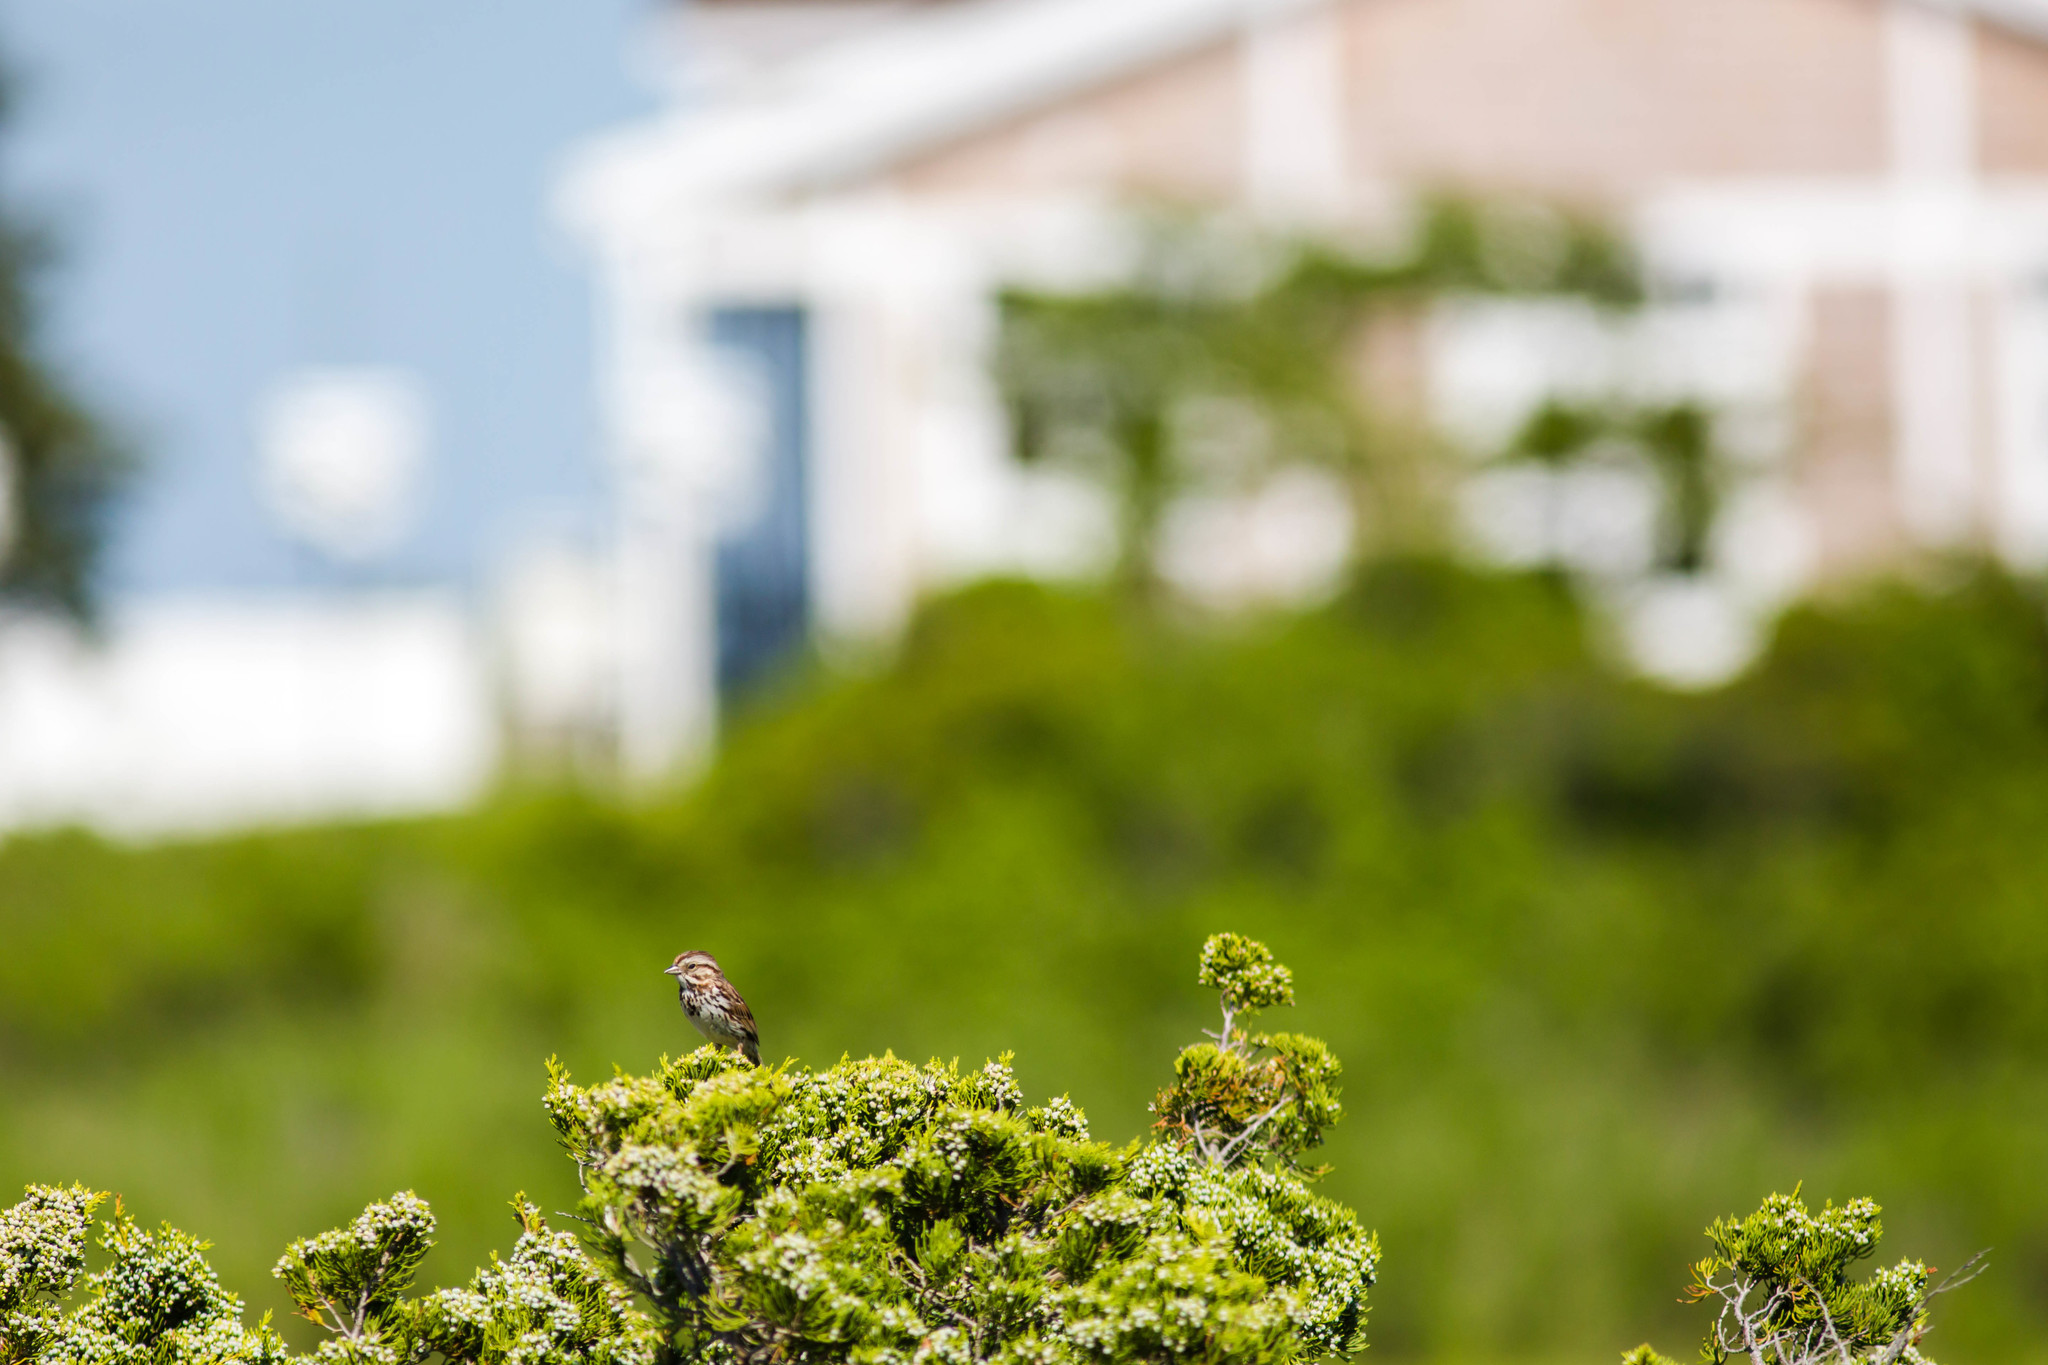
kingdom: Animalia
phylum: Chordata
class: Aves
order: Passeriformes
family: Passerellidae
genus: Melospiza
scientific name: Melospiza melodia
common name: Song sparrow
